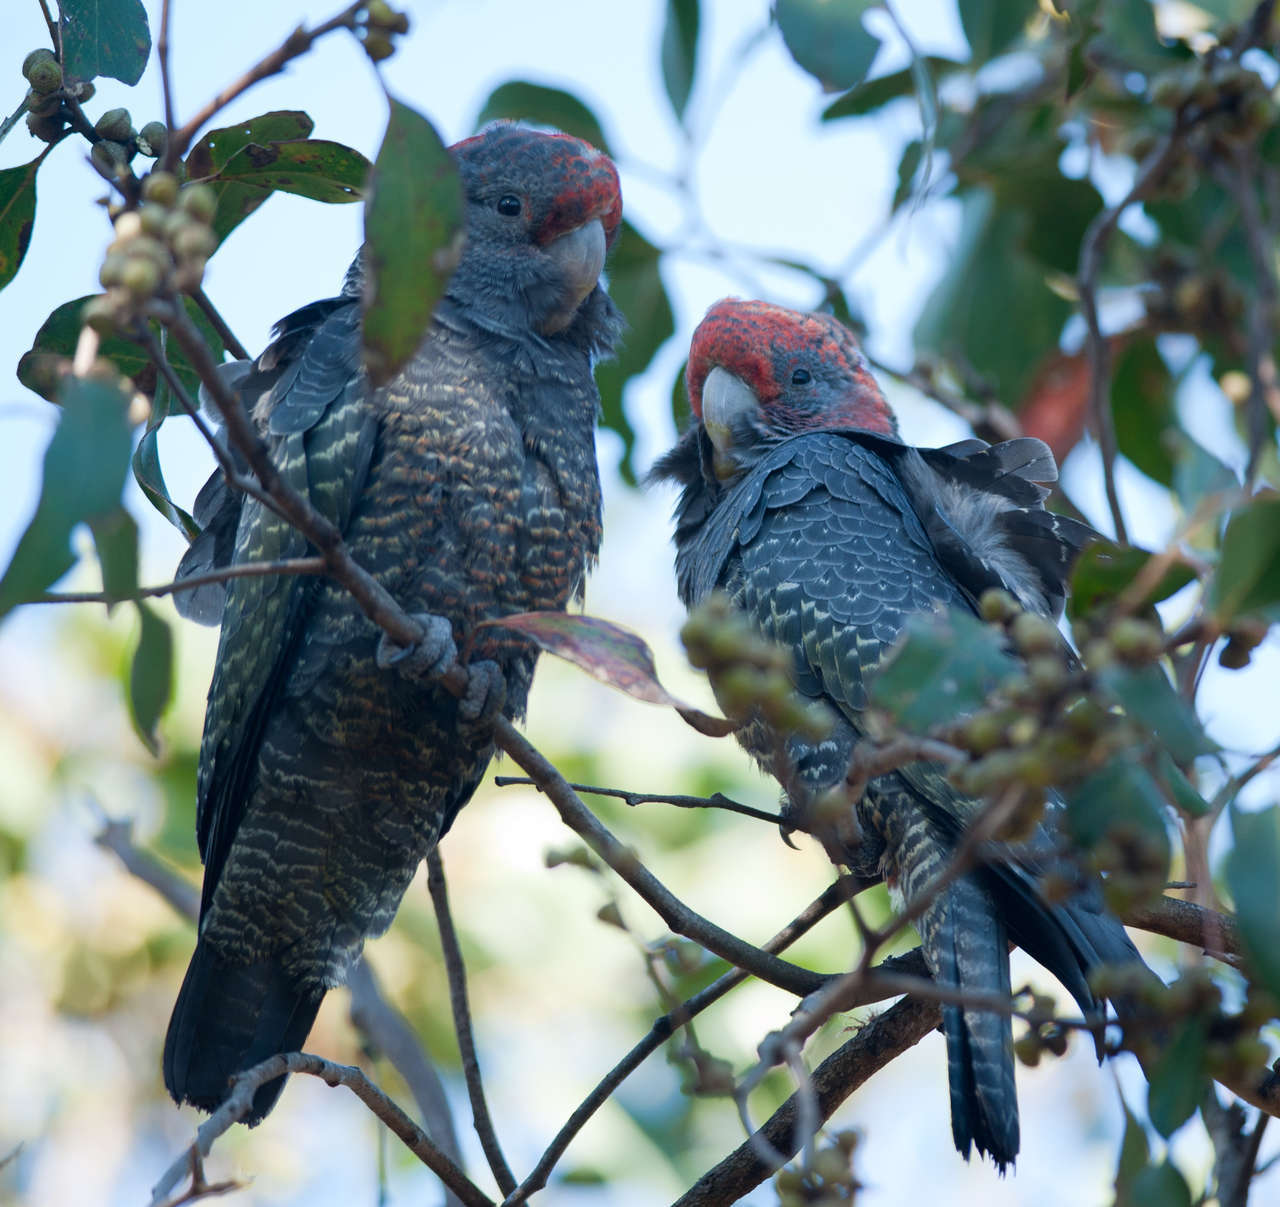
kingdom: Animalia
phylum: Chordata
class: Aves
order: Psittaciformes
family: Psittacidae
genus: Callocephalon
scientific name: Callocephalon fimbriatum
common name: Gang-gang cockatoo
